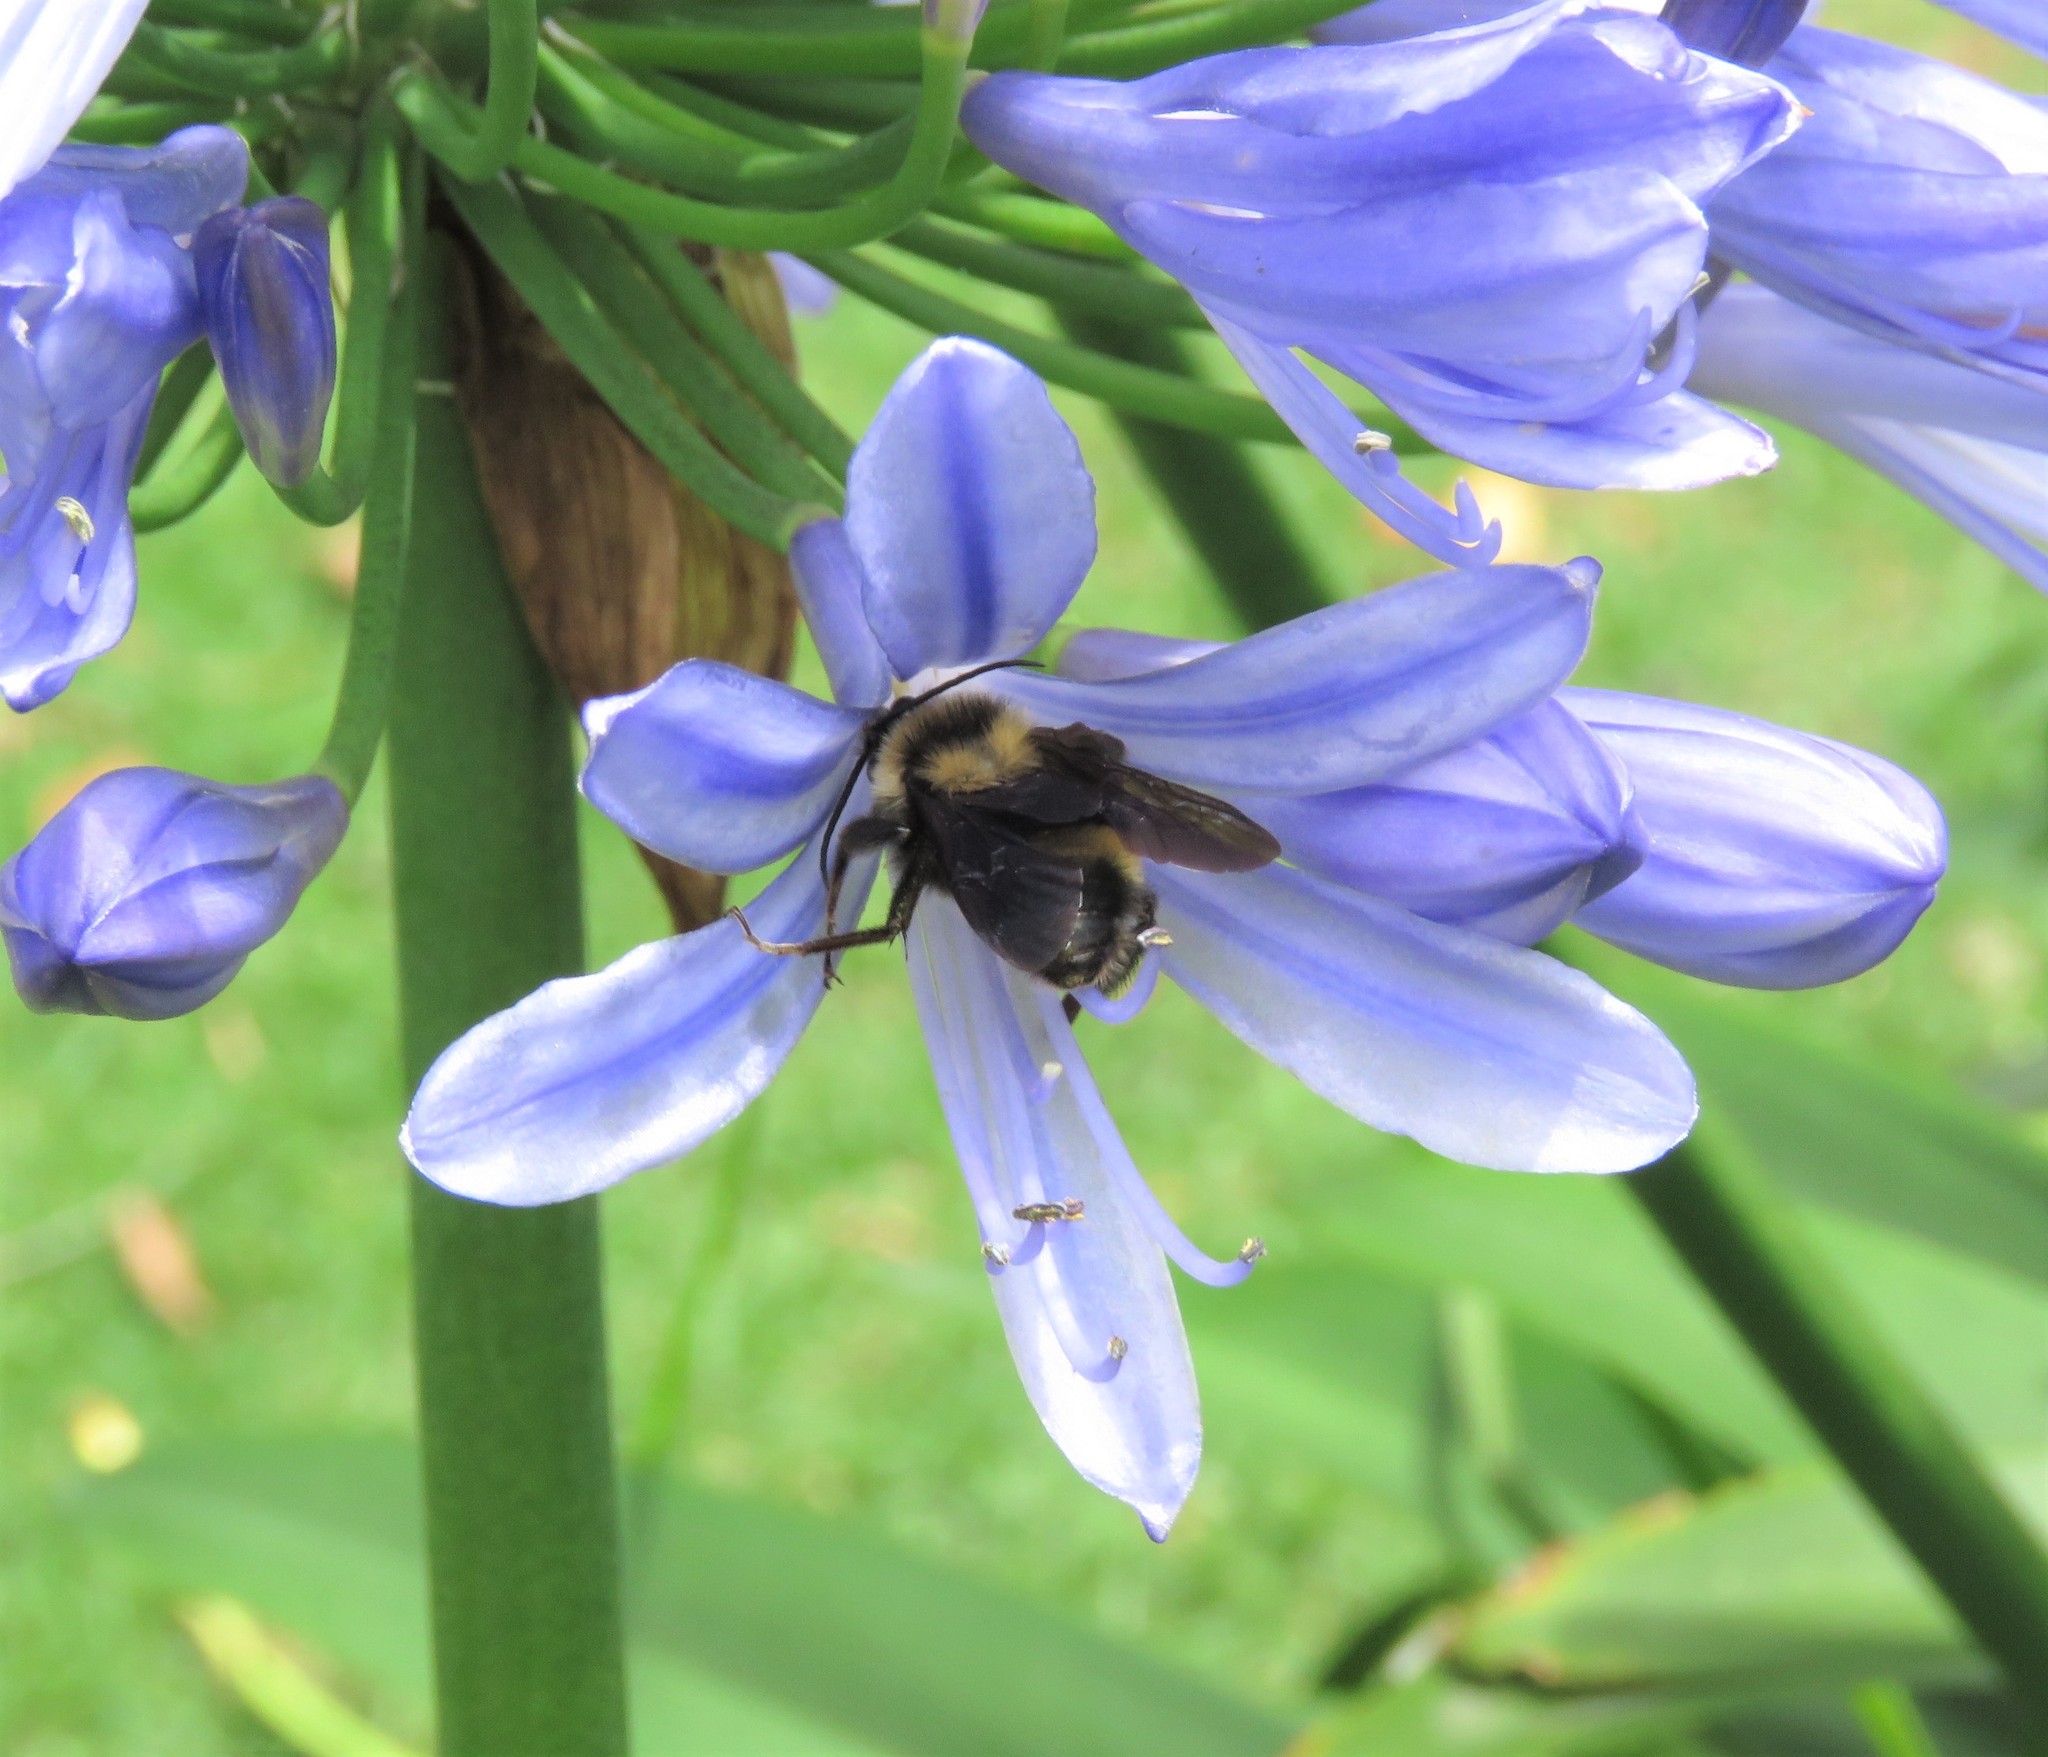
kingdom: Animalia
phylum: Arthropoda
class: Insecta
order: Hymenoptera
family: Apidae
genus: Bombus
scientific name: Bombus pauloensis
